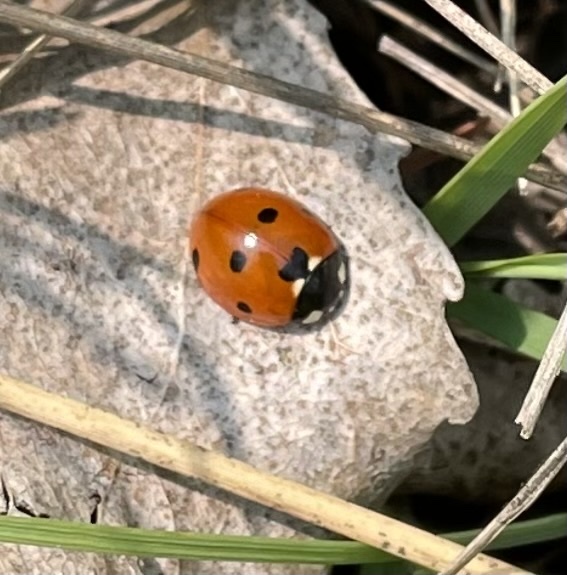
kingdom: Animalia
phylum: Arthropoda
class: Insecta
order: Coleoptera
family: Coccinellidae
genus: Coccinella
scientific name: Coccinella septempunctata
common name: Sevenspotted lady beetle
